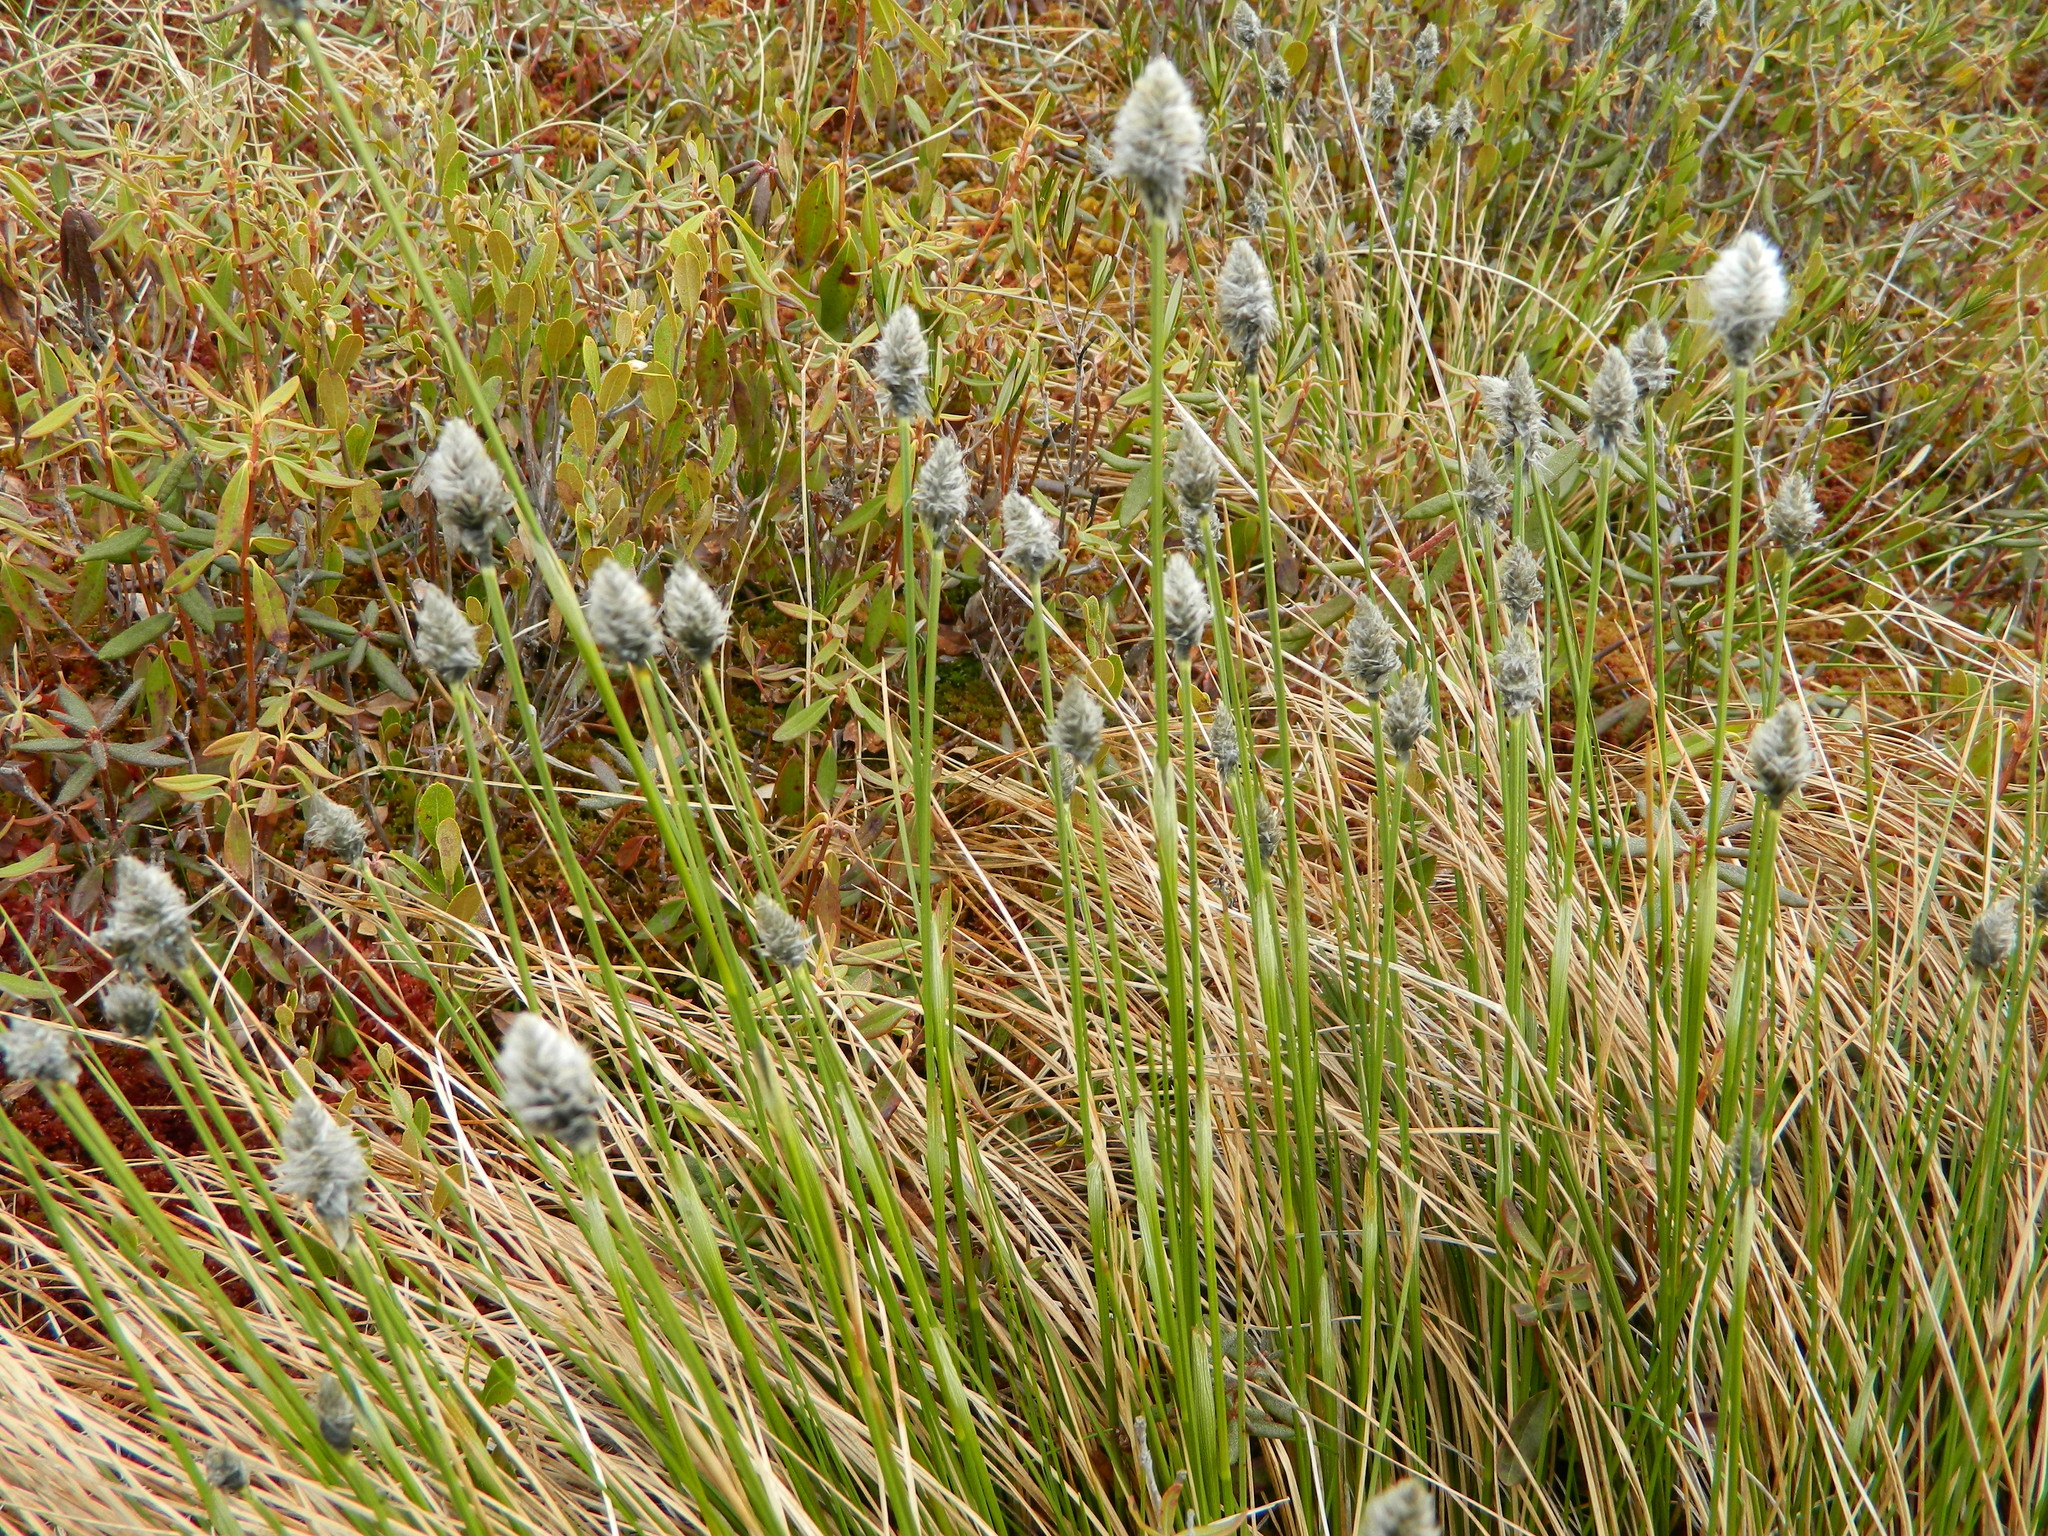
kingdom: Plantae
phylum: Tracheophyta
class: Liliopsida
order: Poales
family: Cyperaceae
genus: Eriophorum
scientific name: Eriophorum vaginatum
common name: Hare's-tail cottongrass
